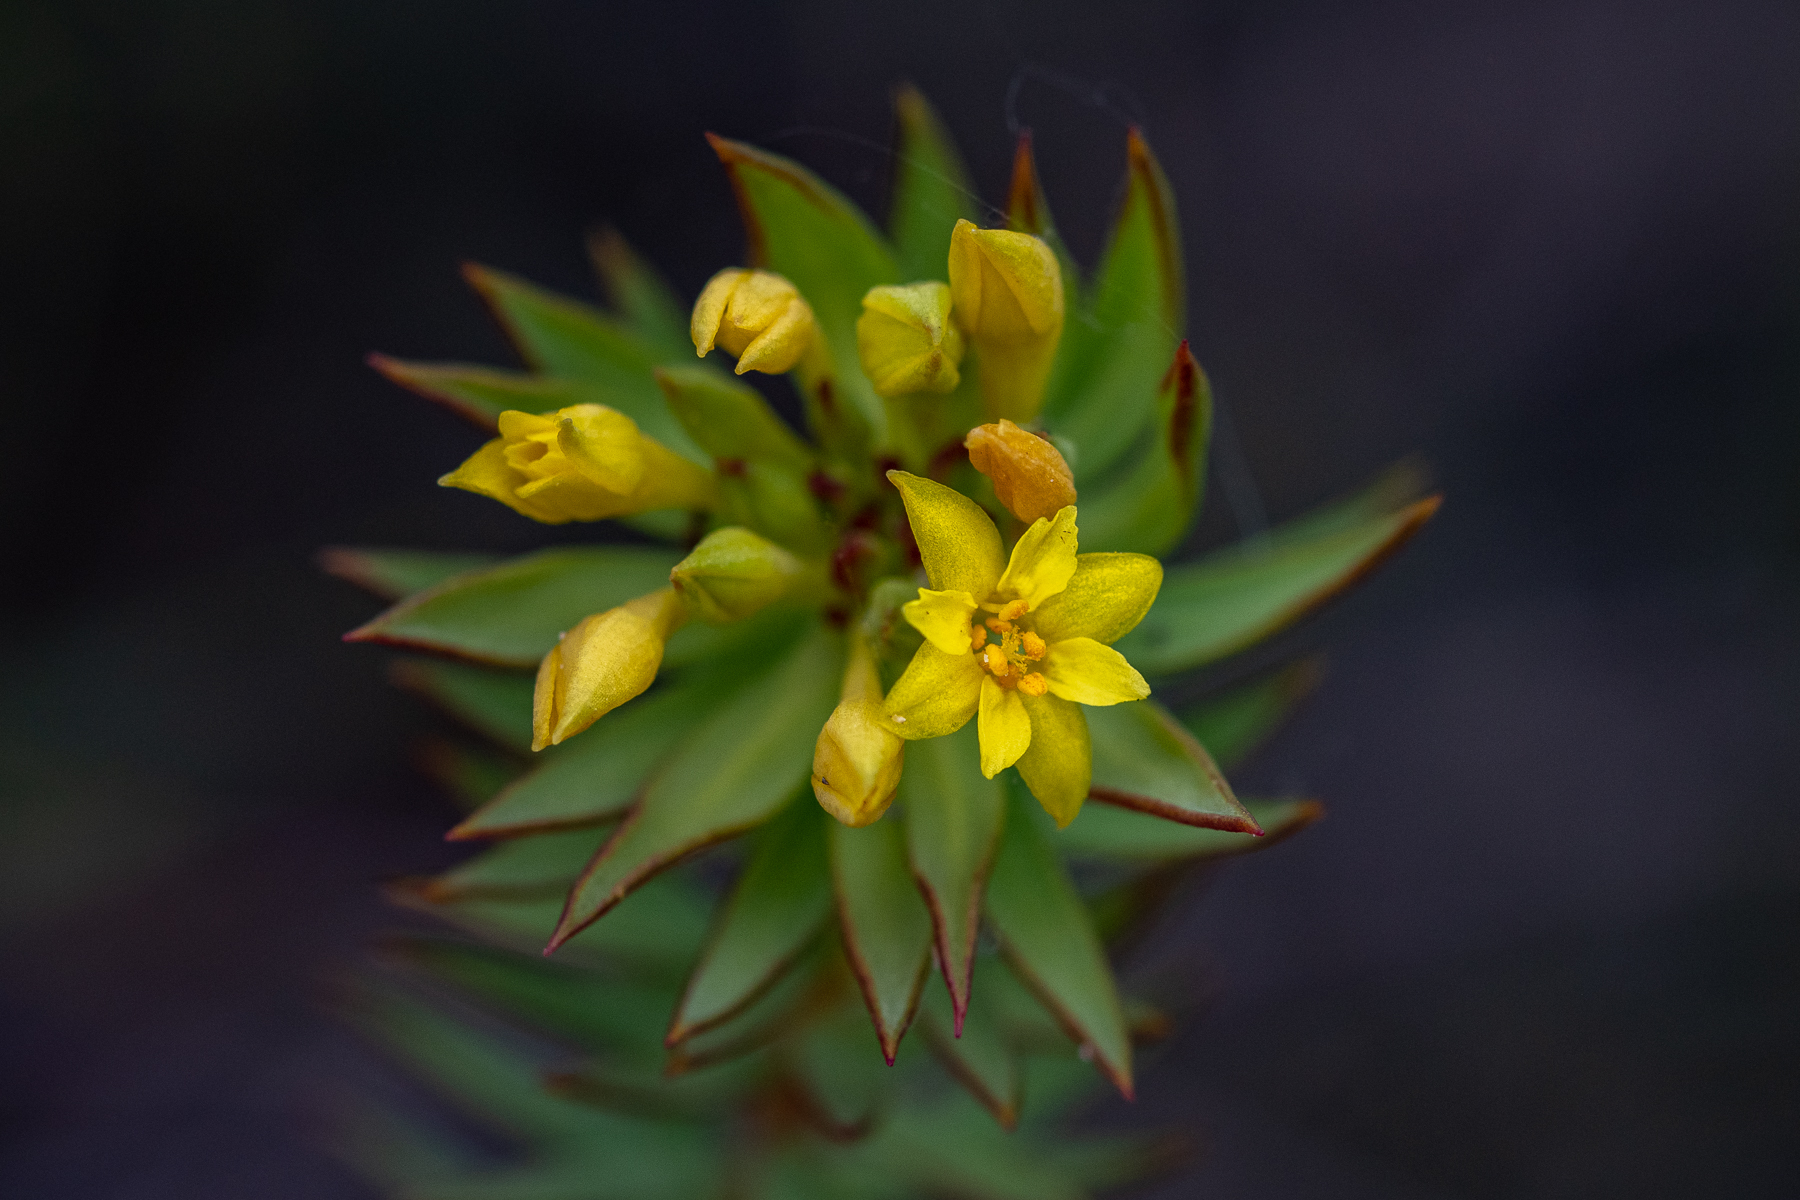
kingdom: Plantae
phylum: Tracheophyta
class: Magnoliopsida
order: Malvales
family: Thymelaeaceae
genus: Gnidia
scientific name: Gnidia juniperifolia
